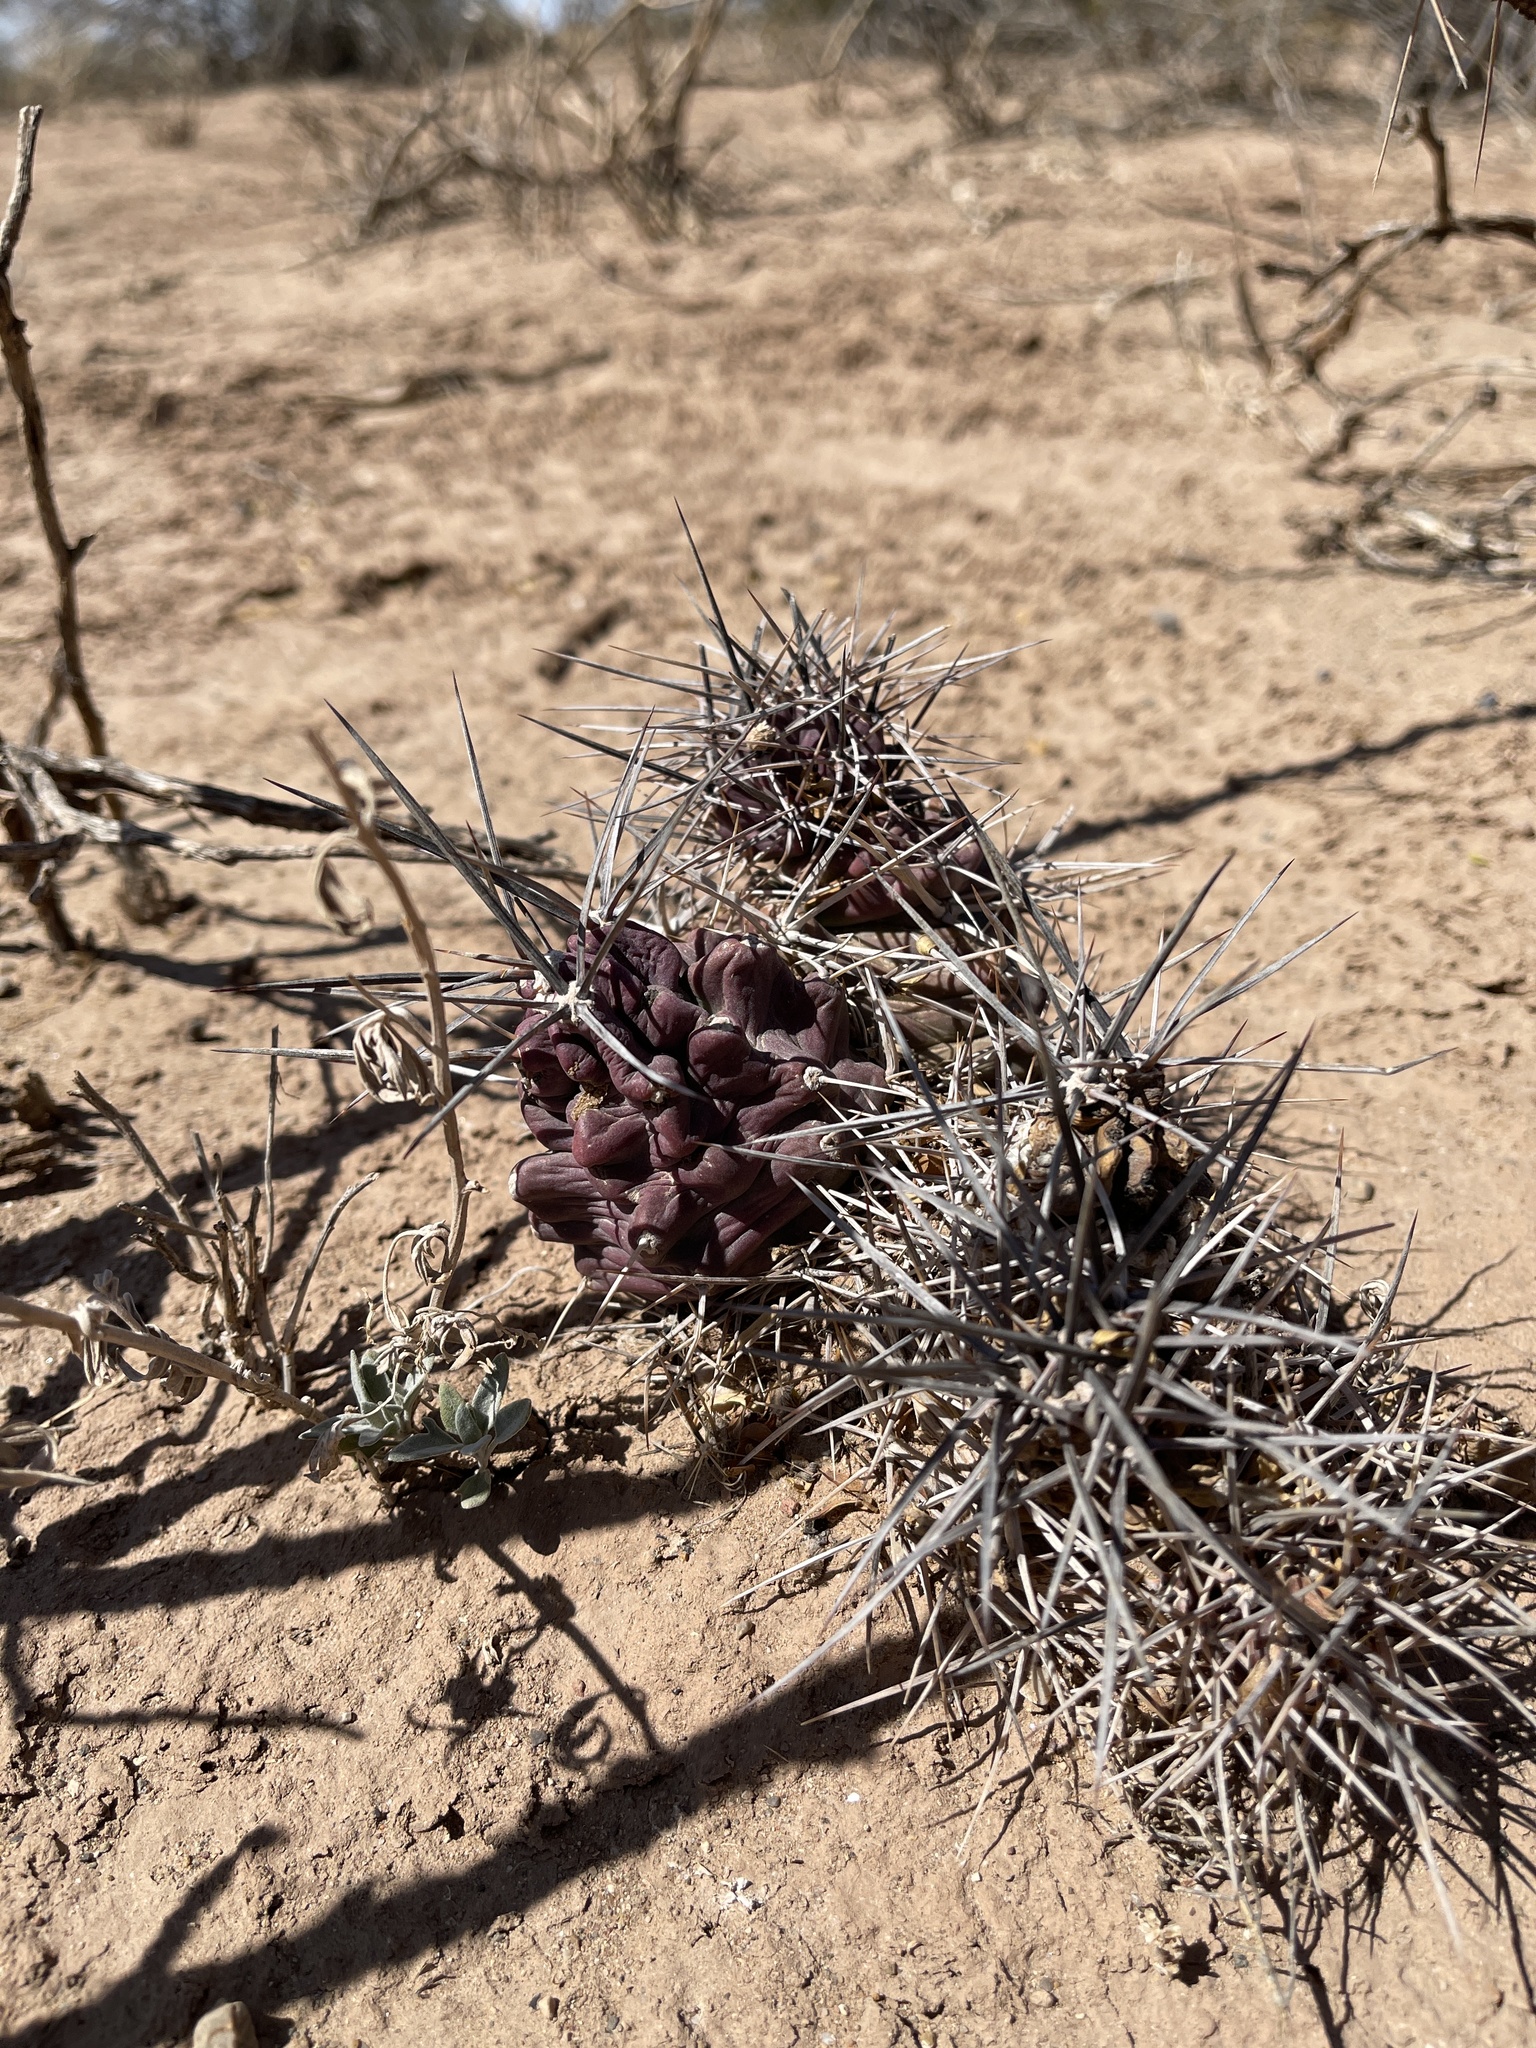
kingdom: Plantae
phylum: Tracheophyta
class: Magnoliopsida
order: Caryophyllales
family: Cactaceae
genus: Echinocereus
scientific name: Echinocereus triglochidiatus
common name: Claretcup hedgehog
